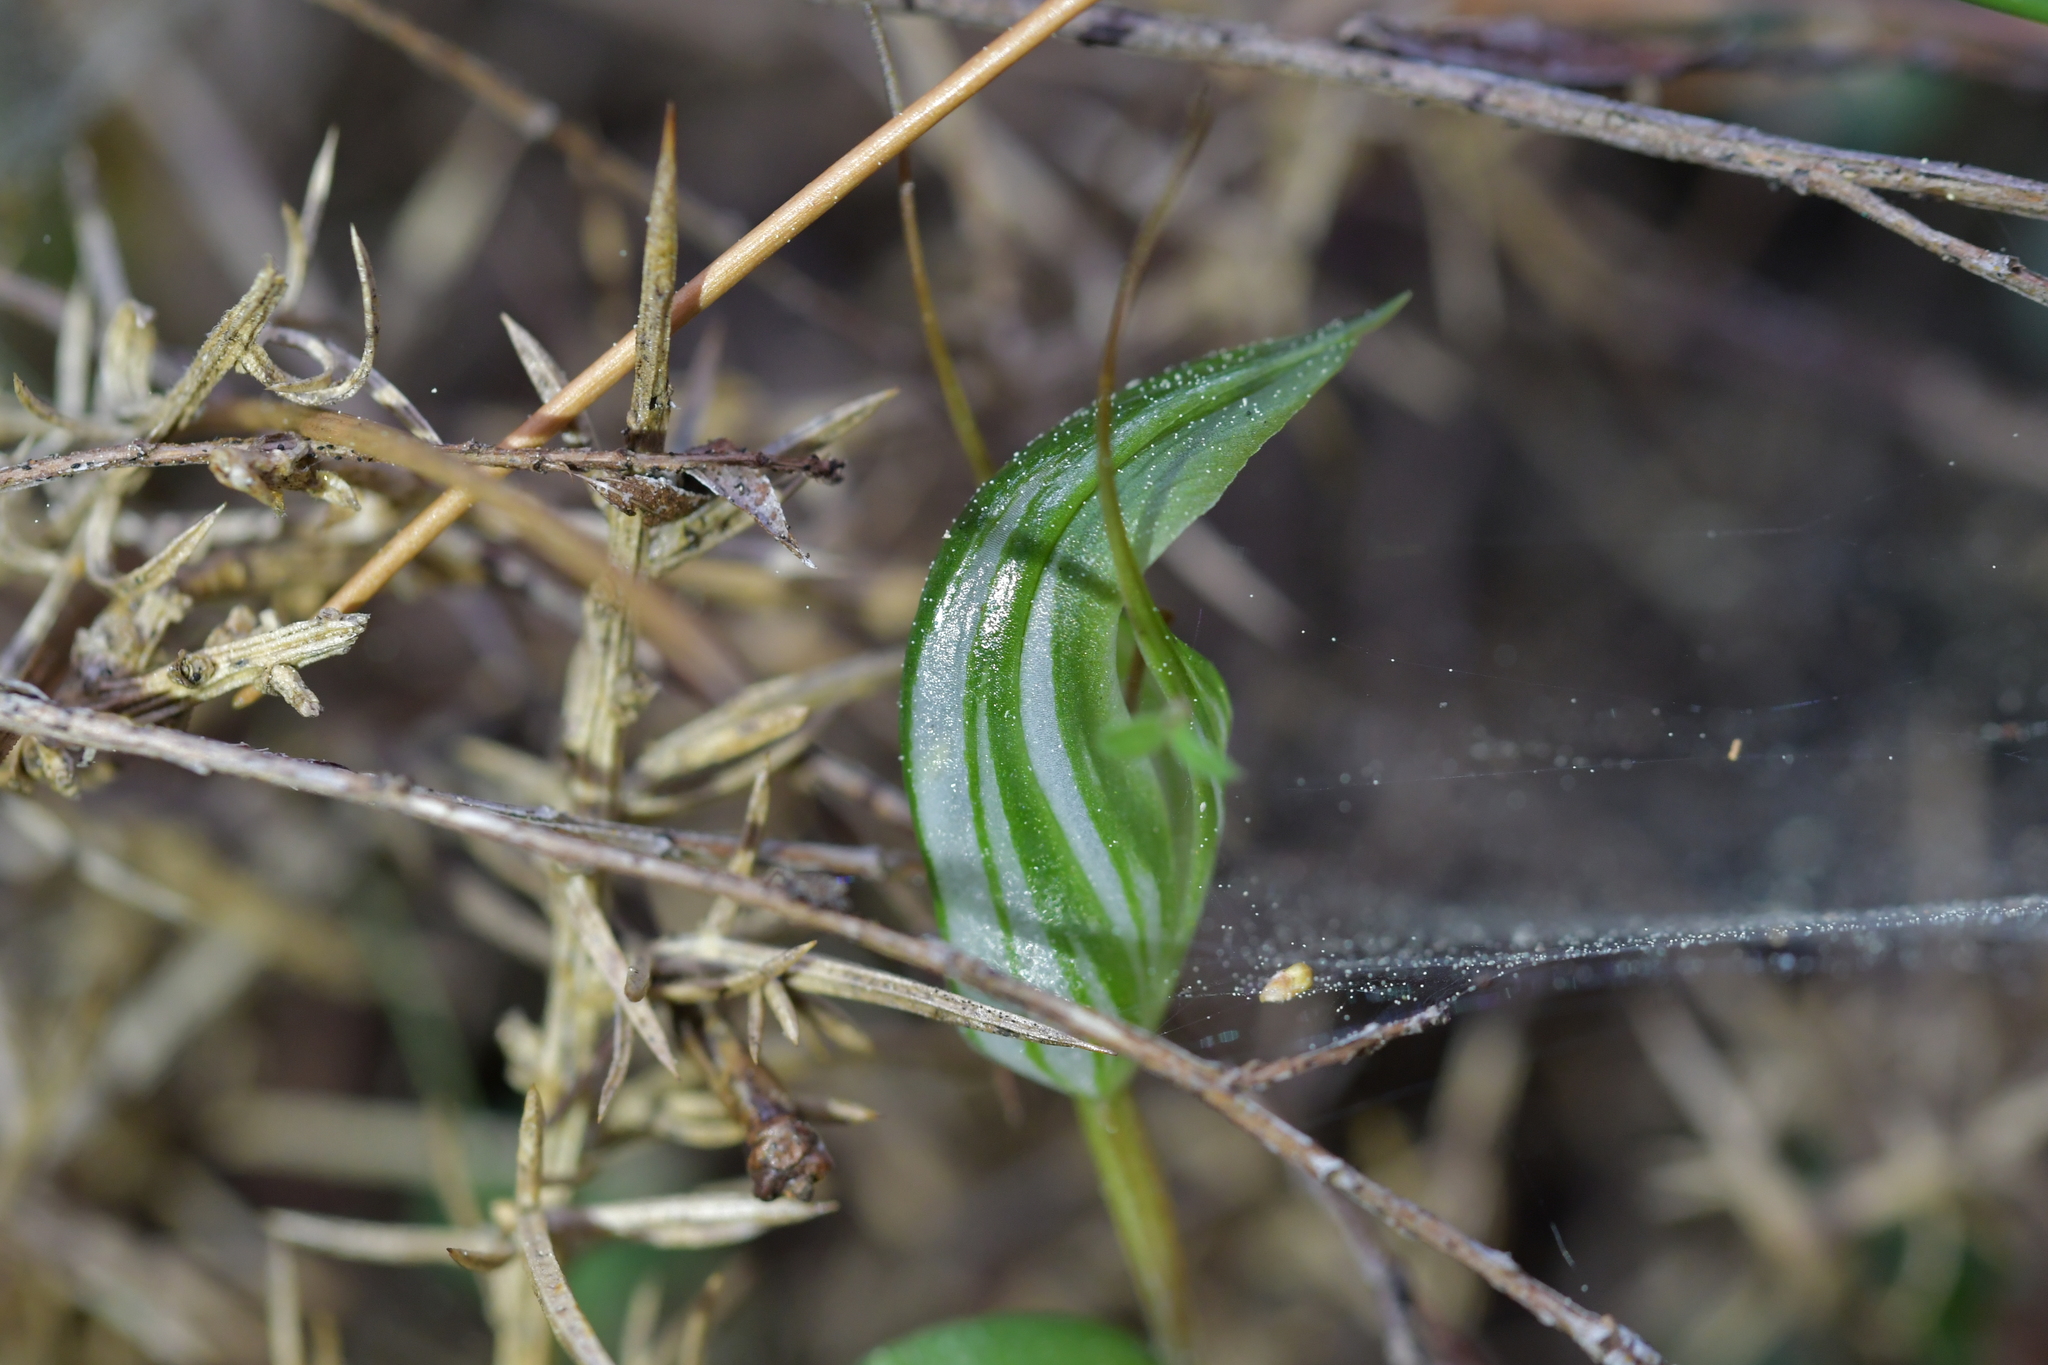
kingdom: Plantae
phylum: Tracheophyta
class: Liliopsida
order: Asparagales
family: Orchidaceae
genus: Pterostylis
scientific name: Pterostylis alobula
